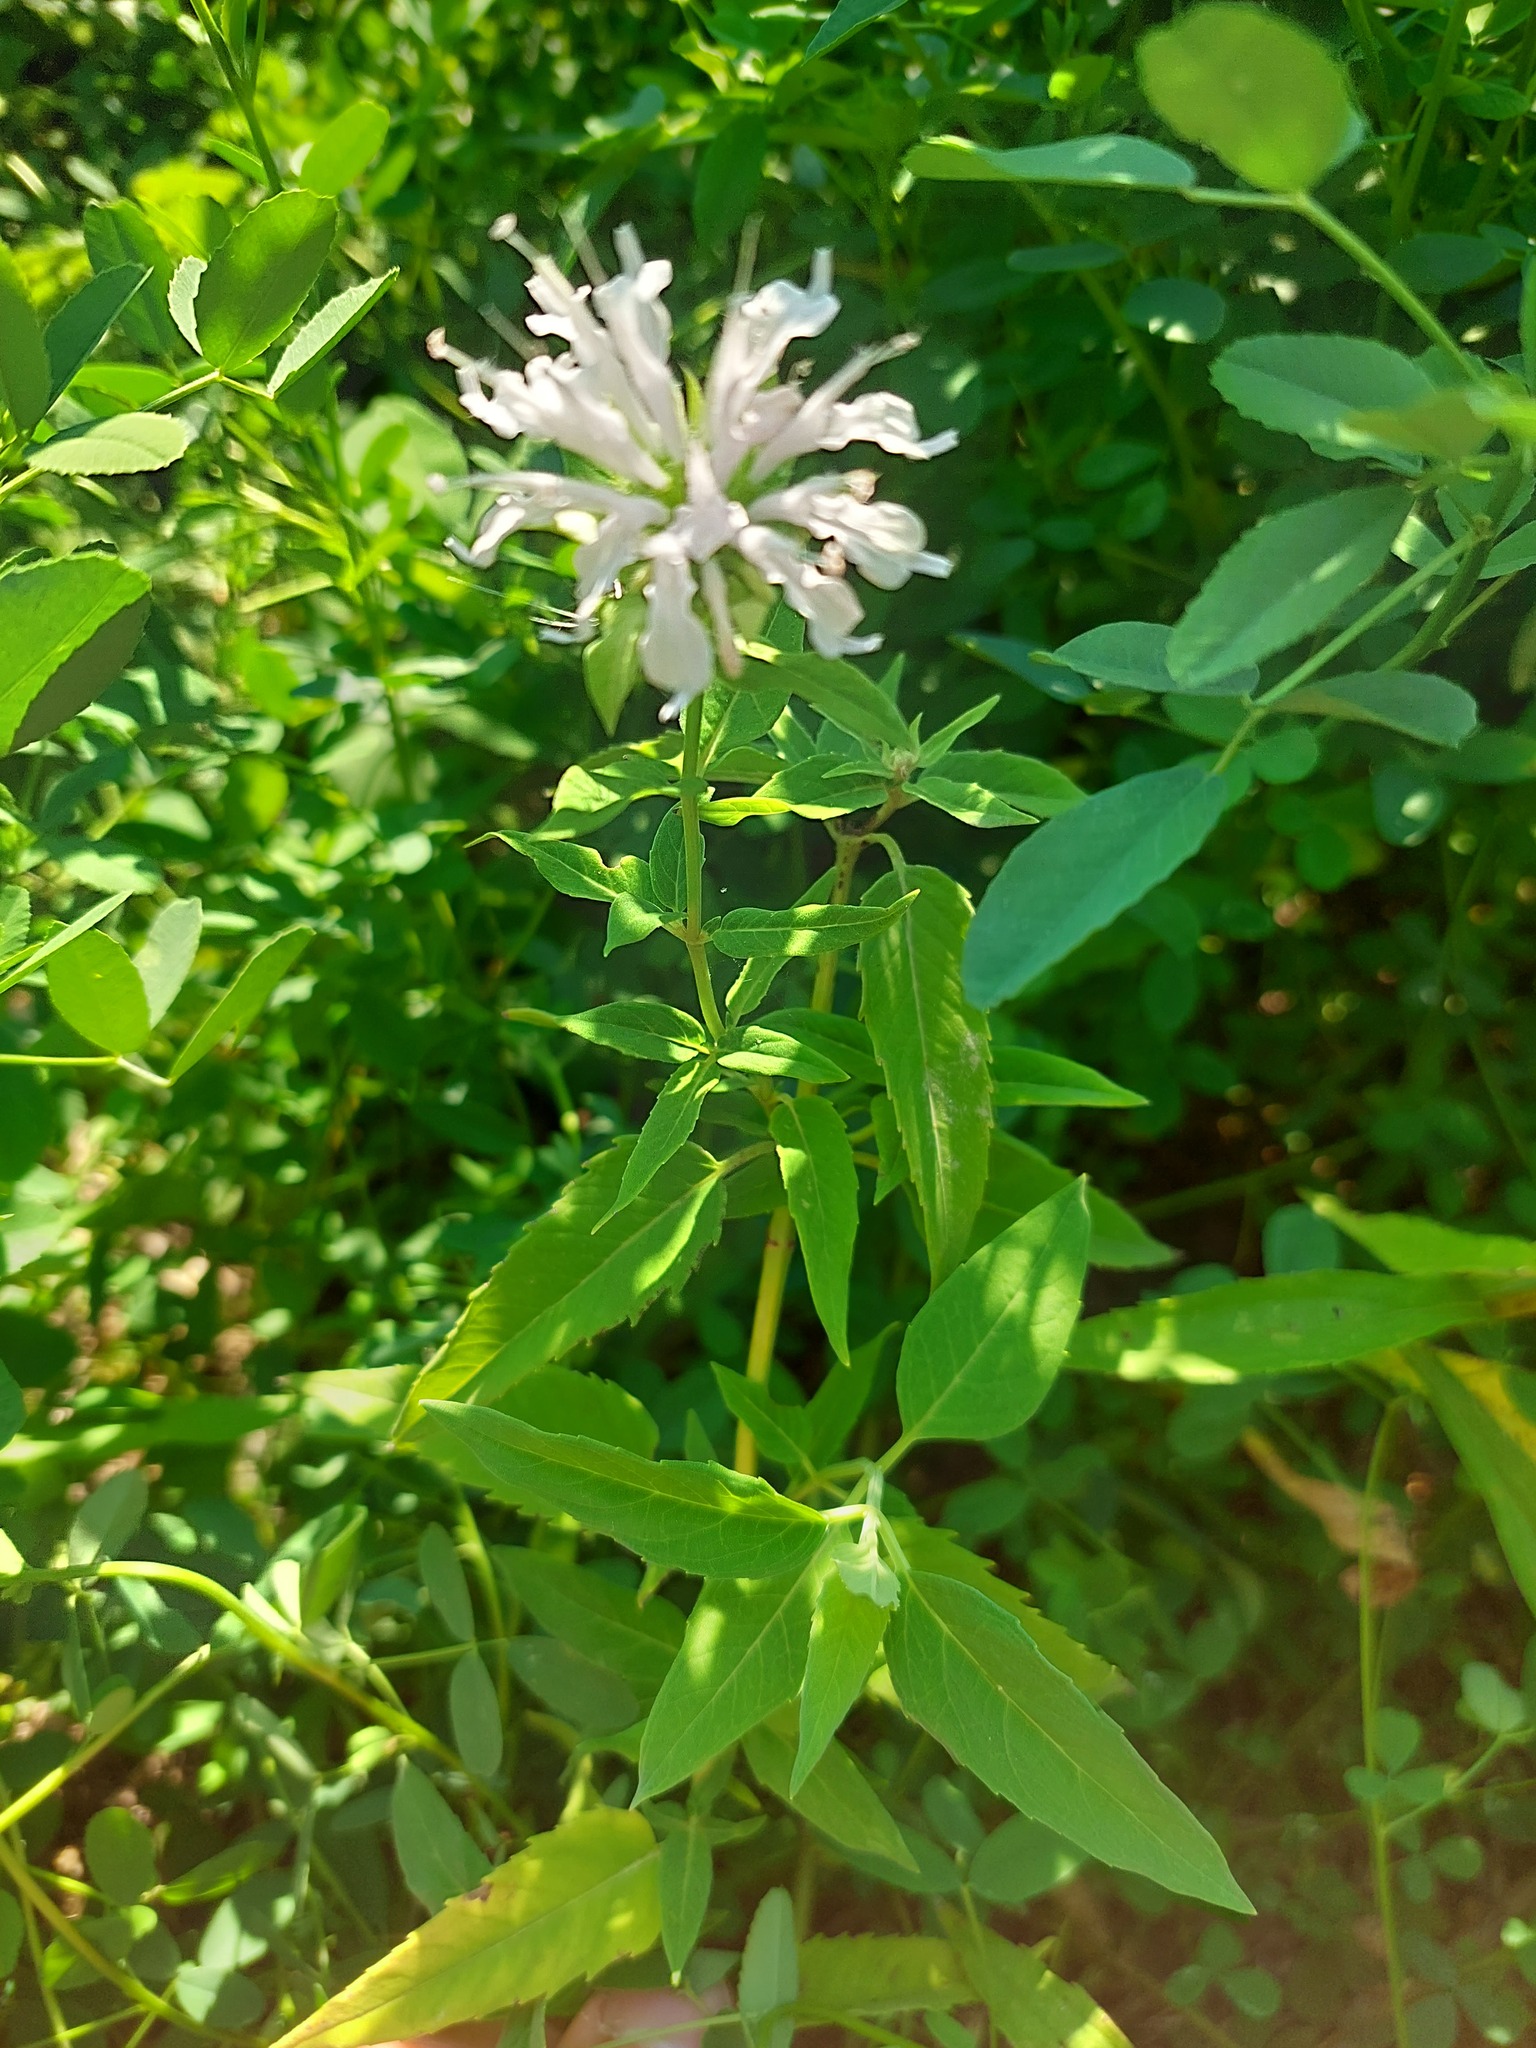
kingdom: Plantae
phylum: Tracheophyta
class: Magnoliopsida
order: Lamiales
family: Lamiaceae
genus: Monarda
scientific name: Monarda fistulosa
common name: Purple beebalm
